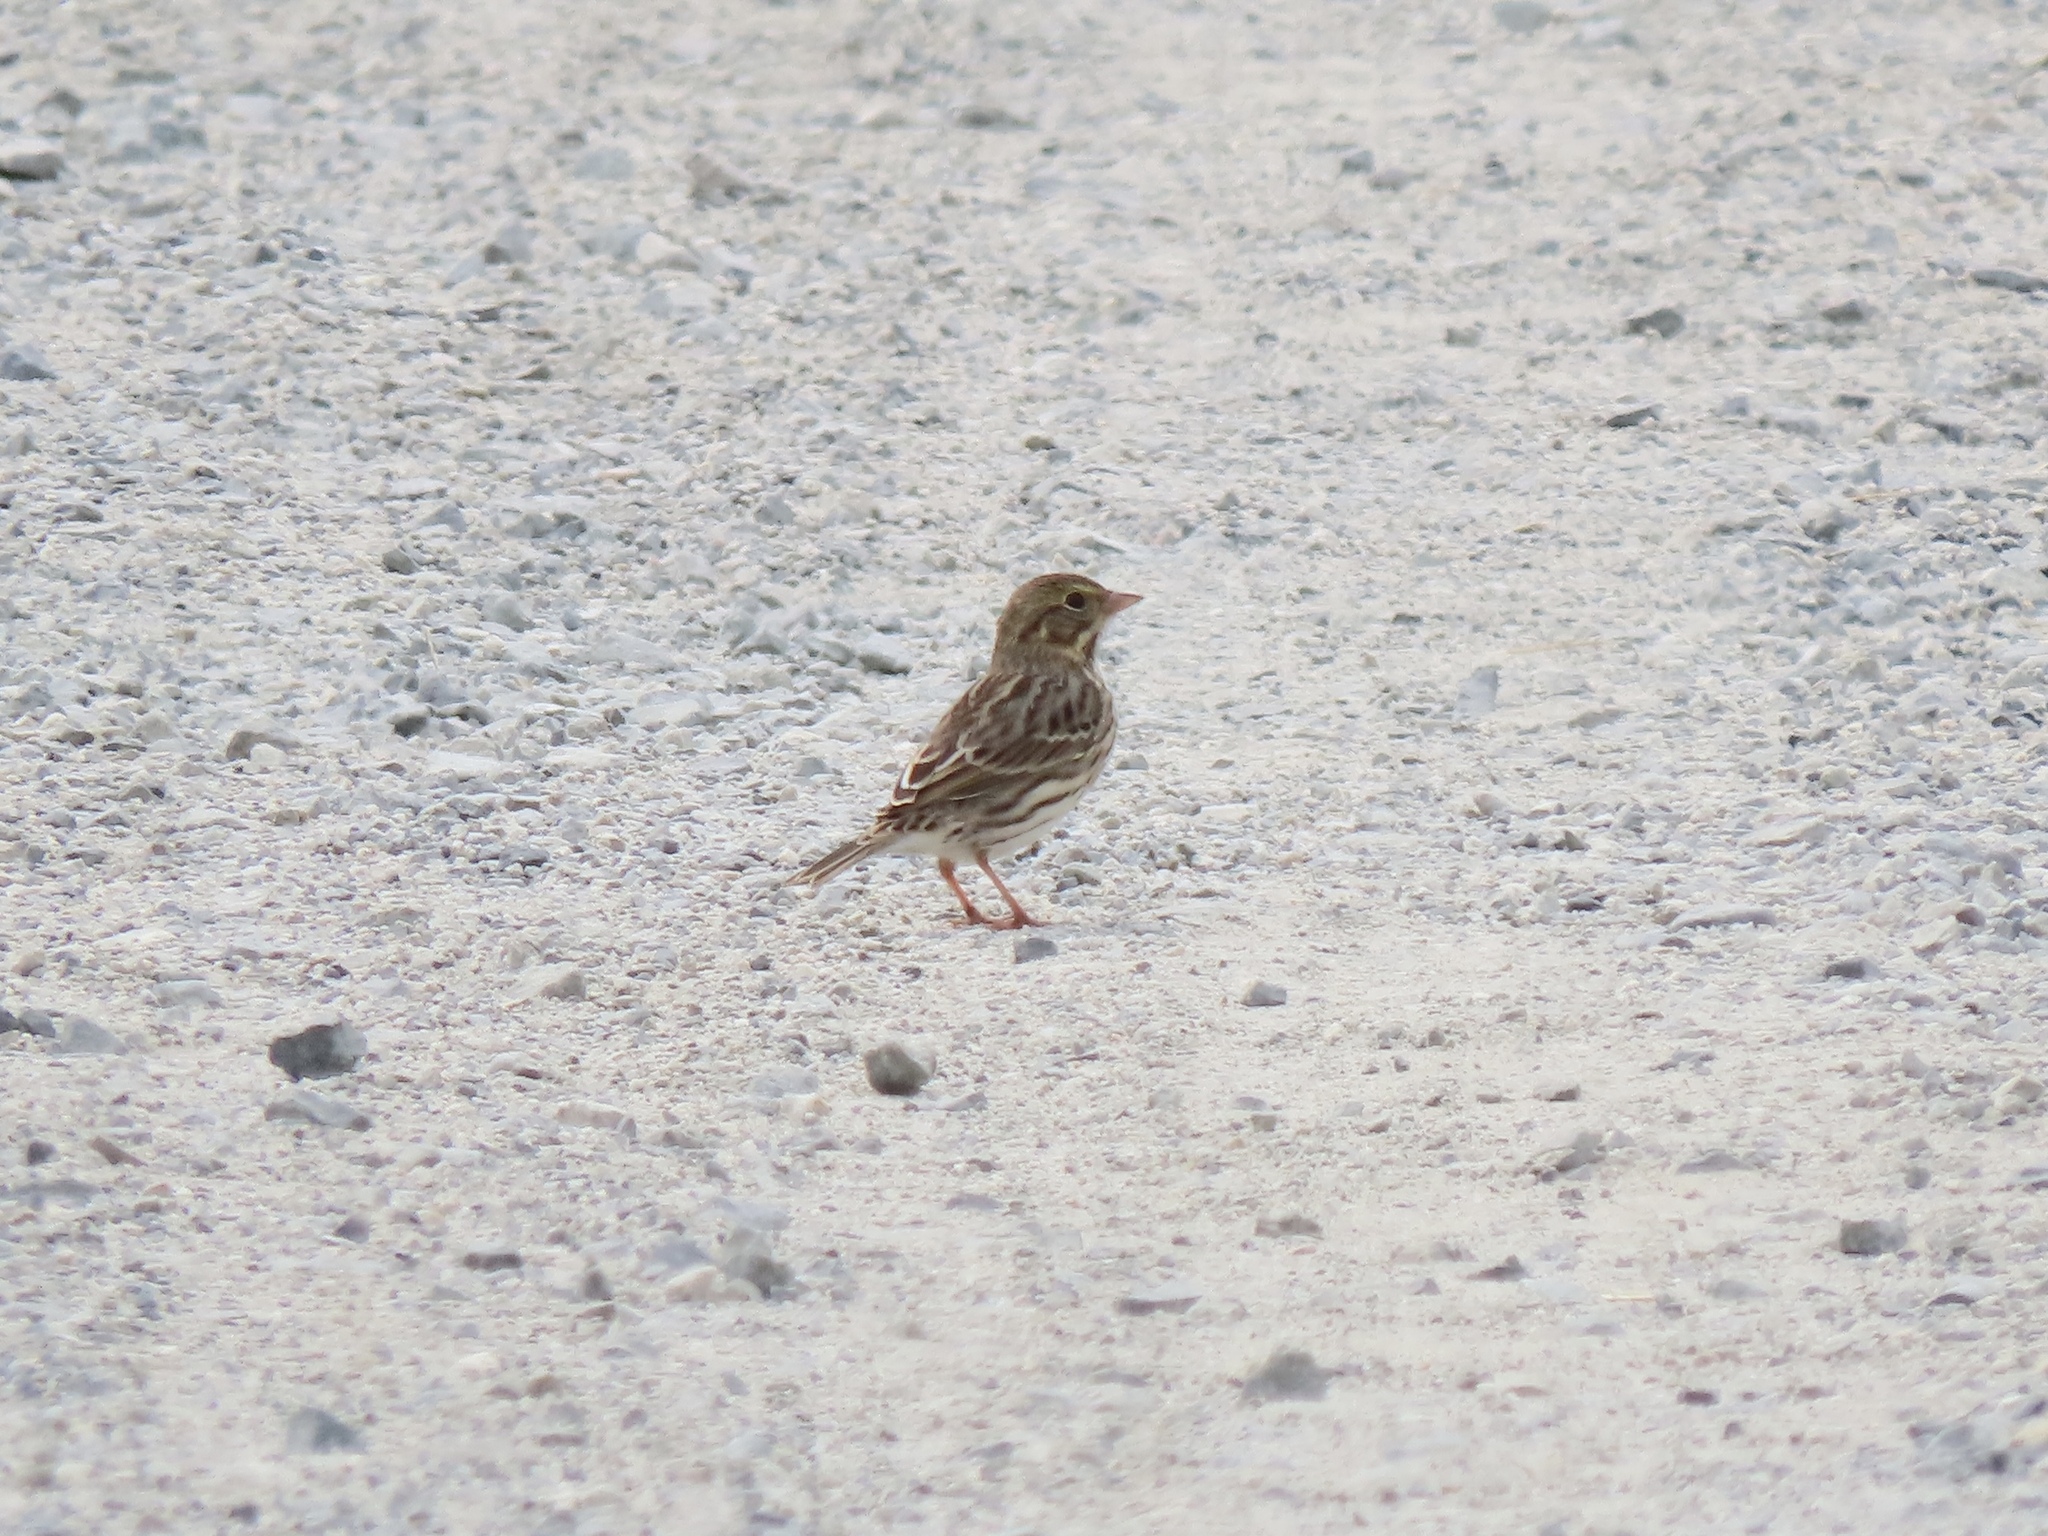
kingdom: Animalia
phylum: Chordata
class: Aves
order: Passeriformes
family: Passerellidae
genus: Passerculus
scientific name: Passerculus sandwichensis
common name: Savannah sparrow
